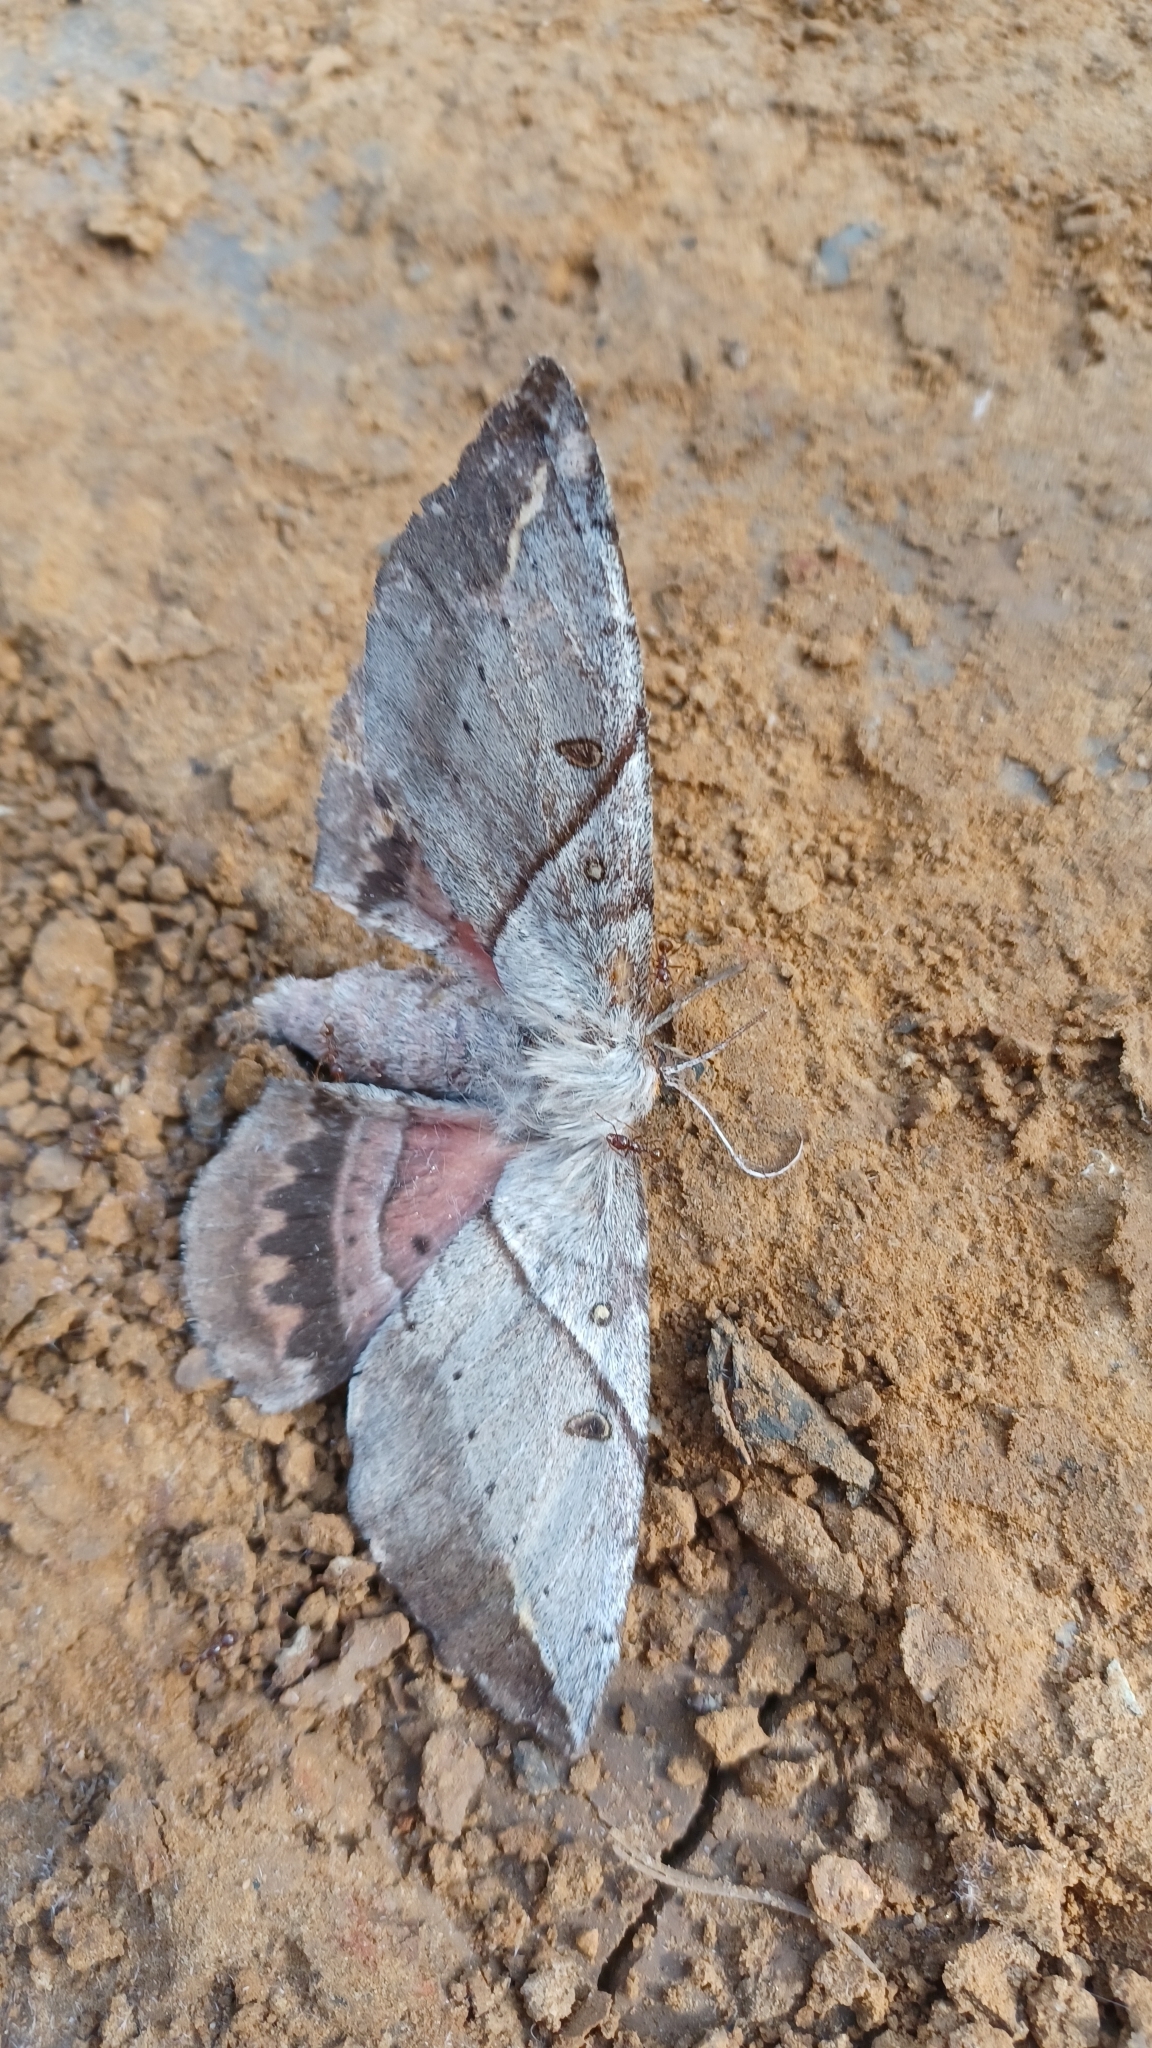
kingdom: Animalia
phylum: Arthropoda
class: Insecta
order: Lepidoptera
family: Anthelidae
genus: Chelepteryx
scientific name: Chelepteryx chalepteryx
